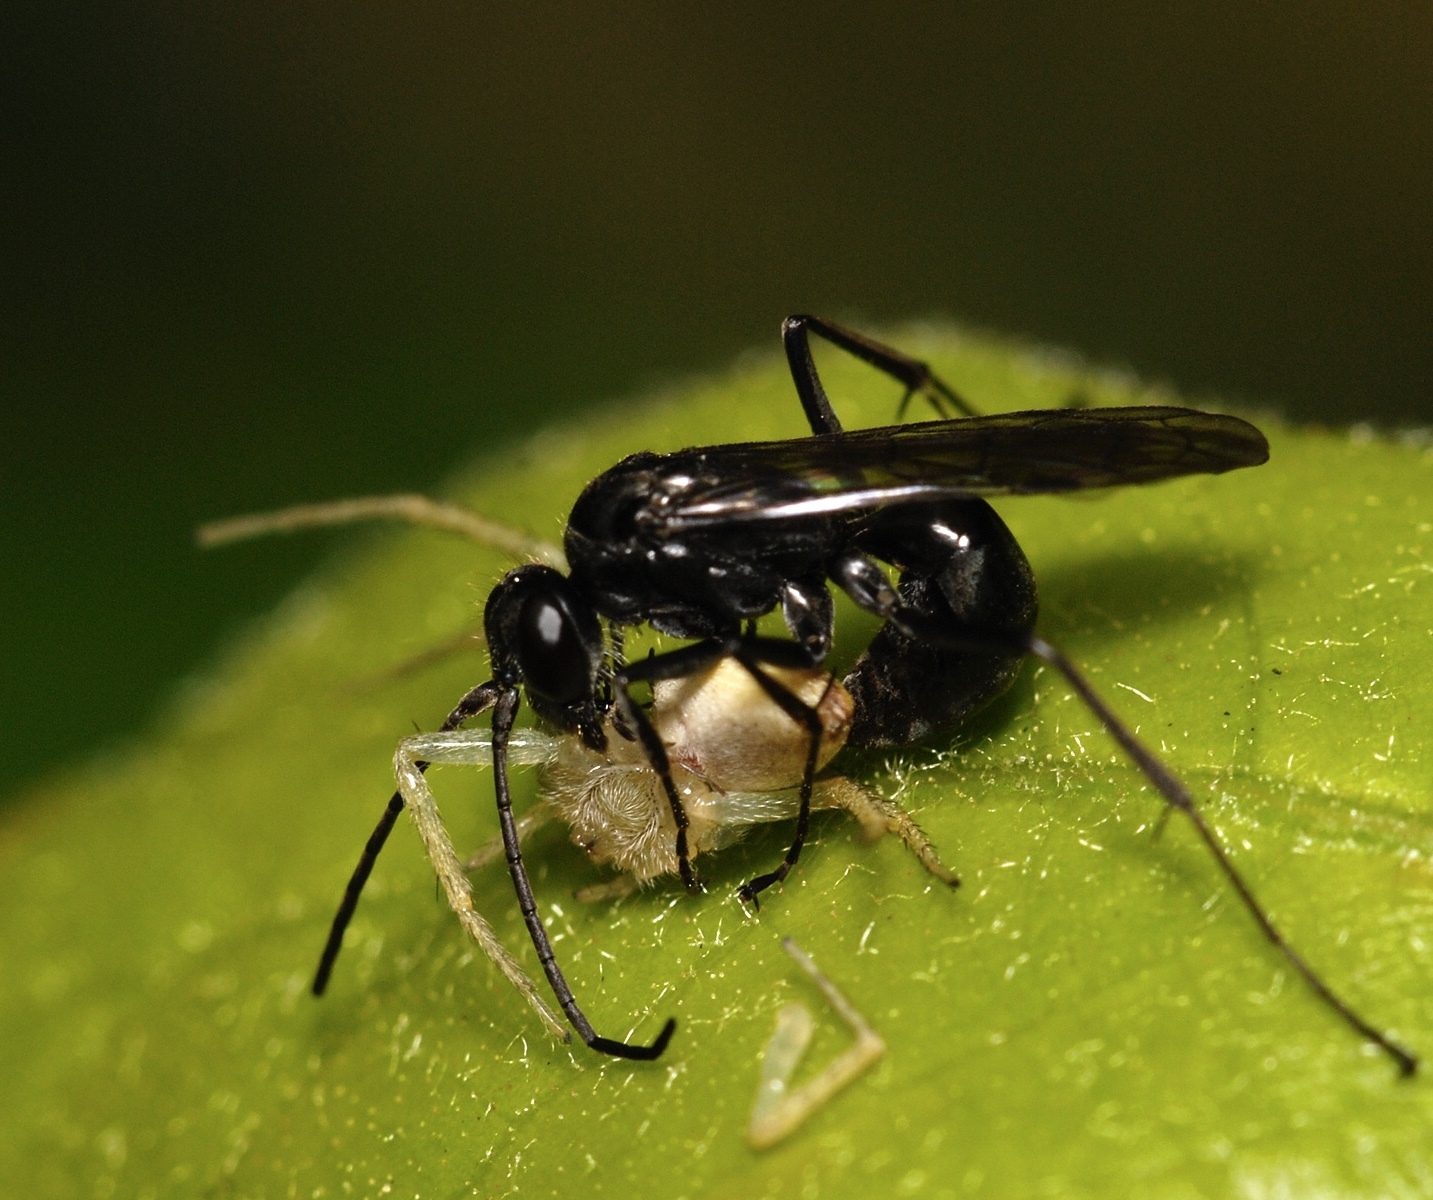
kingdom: Animalia
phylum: Arthropoda
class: Insecta
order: Hymenoptera
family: Pompilidae
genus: Auplopus
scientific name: Auplopus carbonarius
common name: Spider wasp
